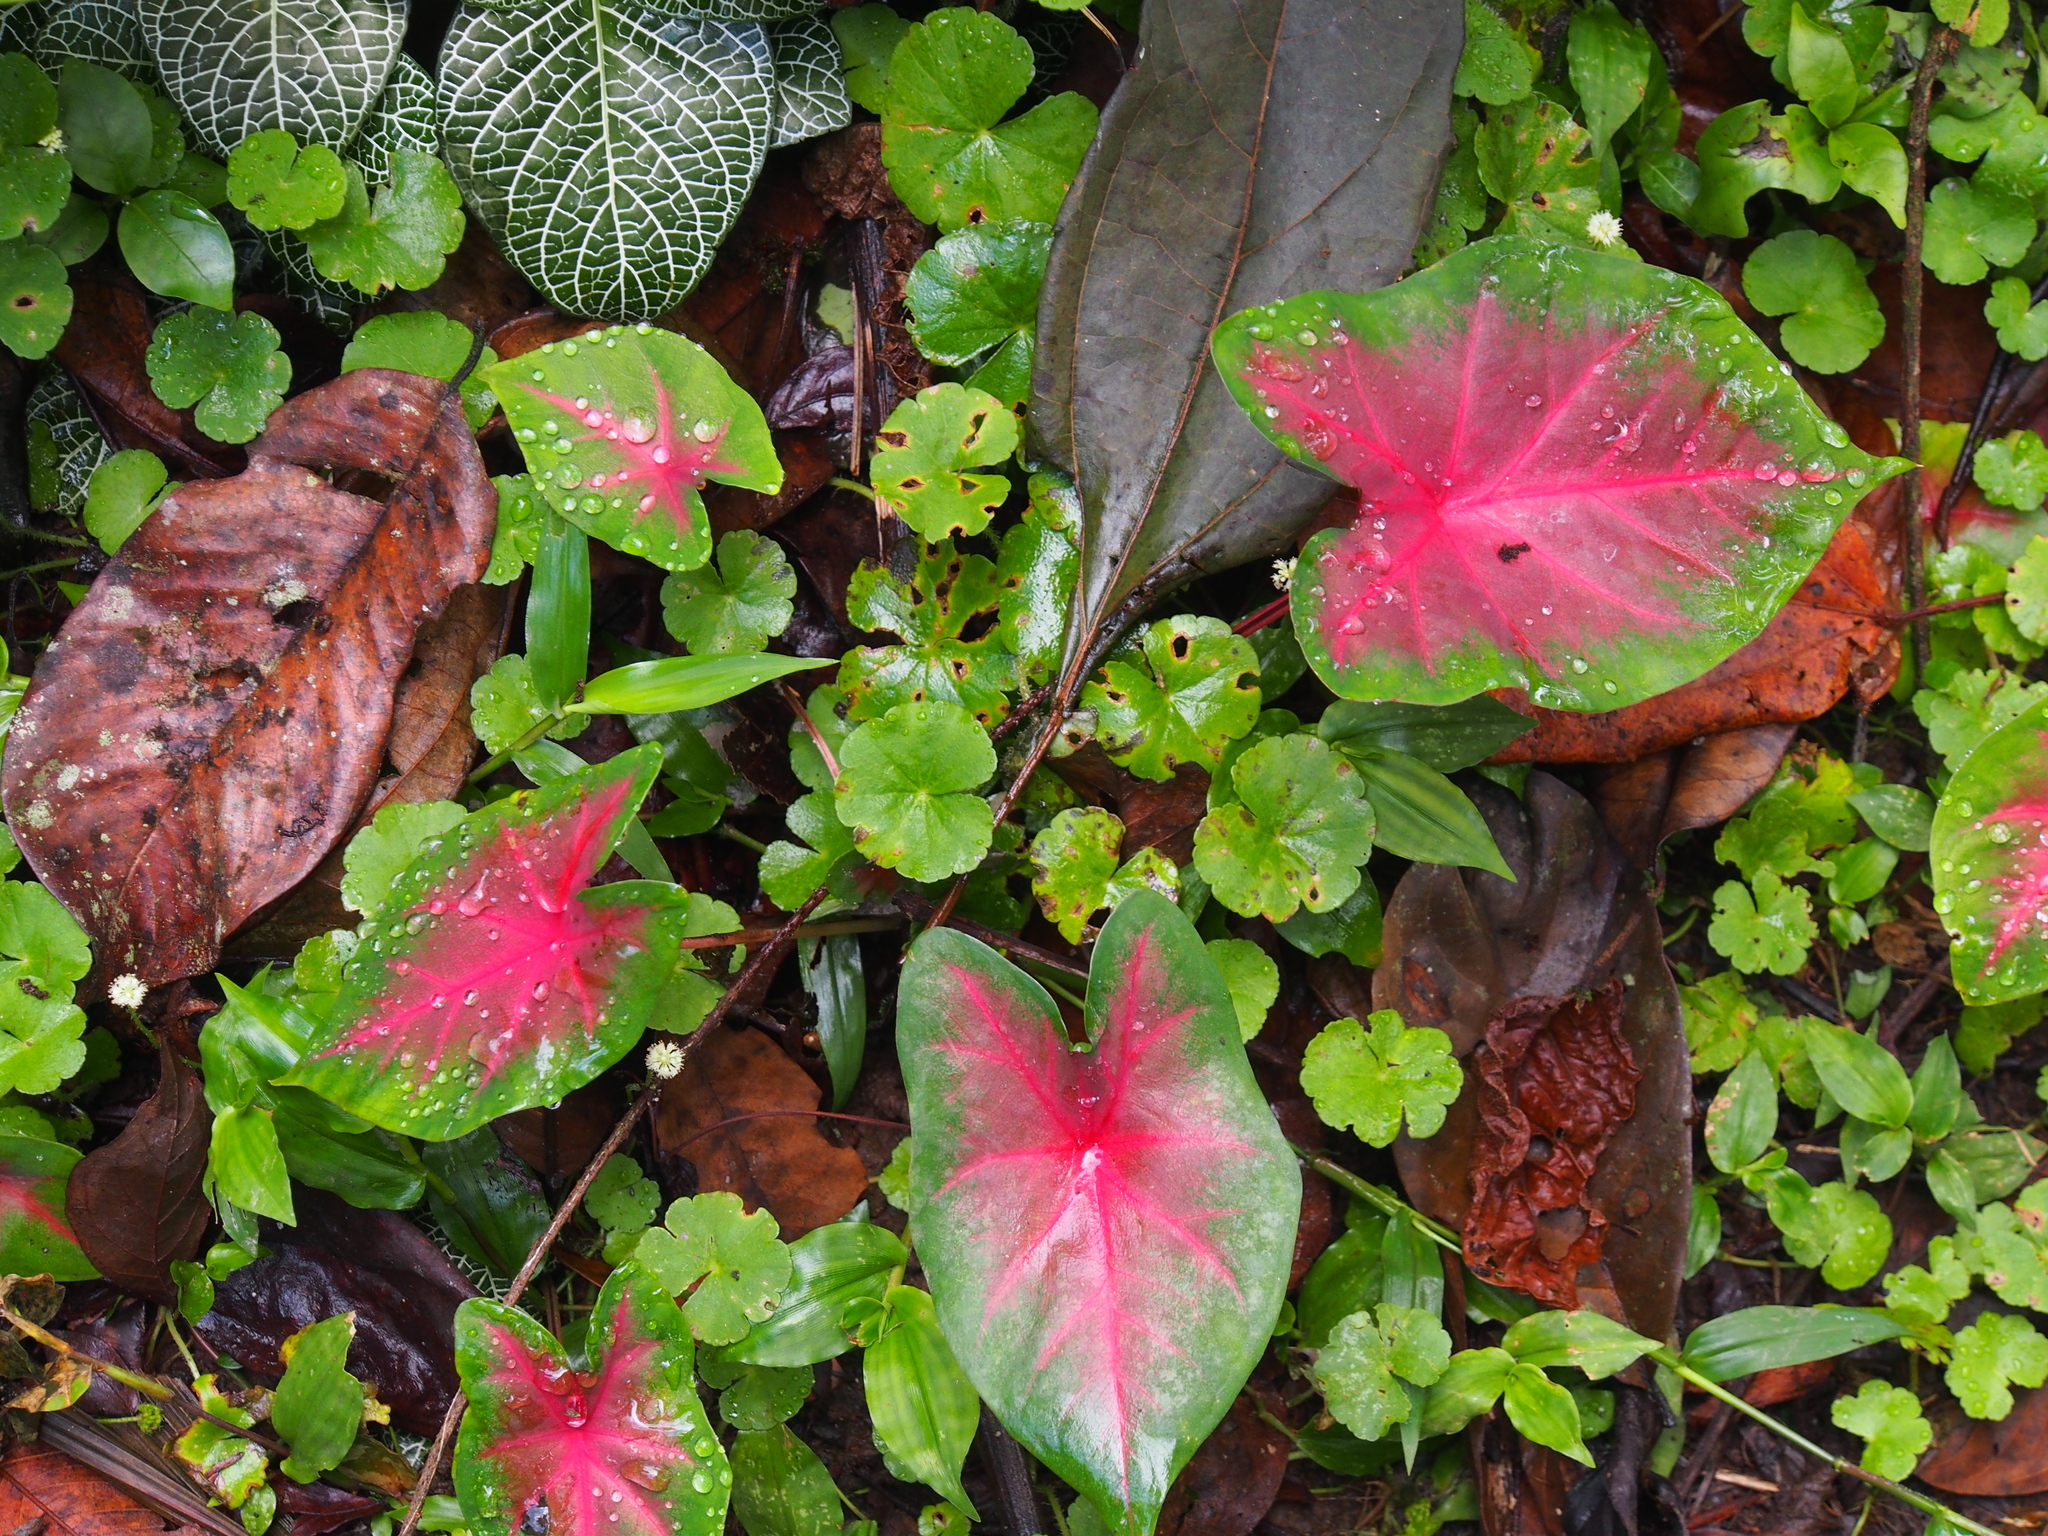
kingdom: Plantae
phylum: Tracheophyta
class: Liliopsida
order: Alismatales
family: Araceae
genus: Caladium
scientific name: Caladium bicolor
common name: Artist's pallet
